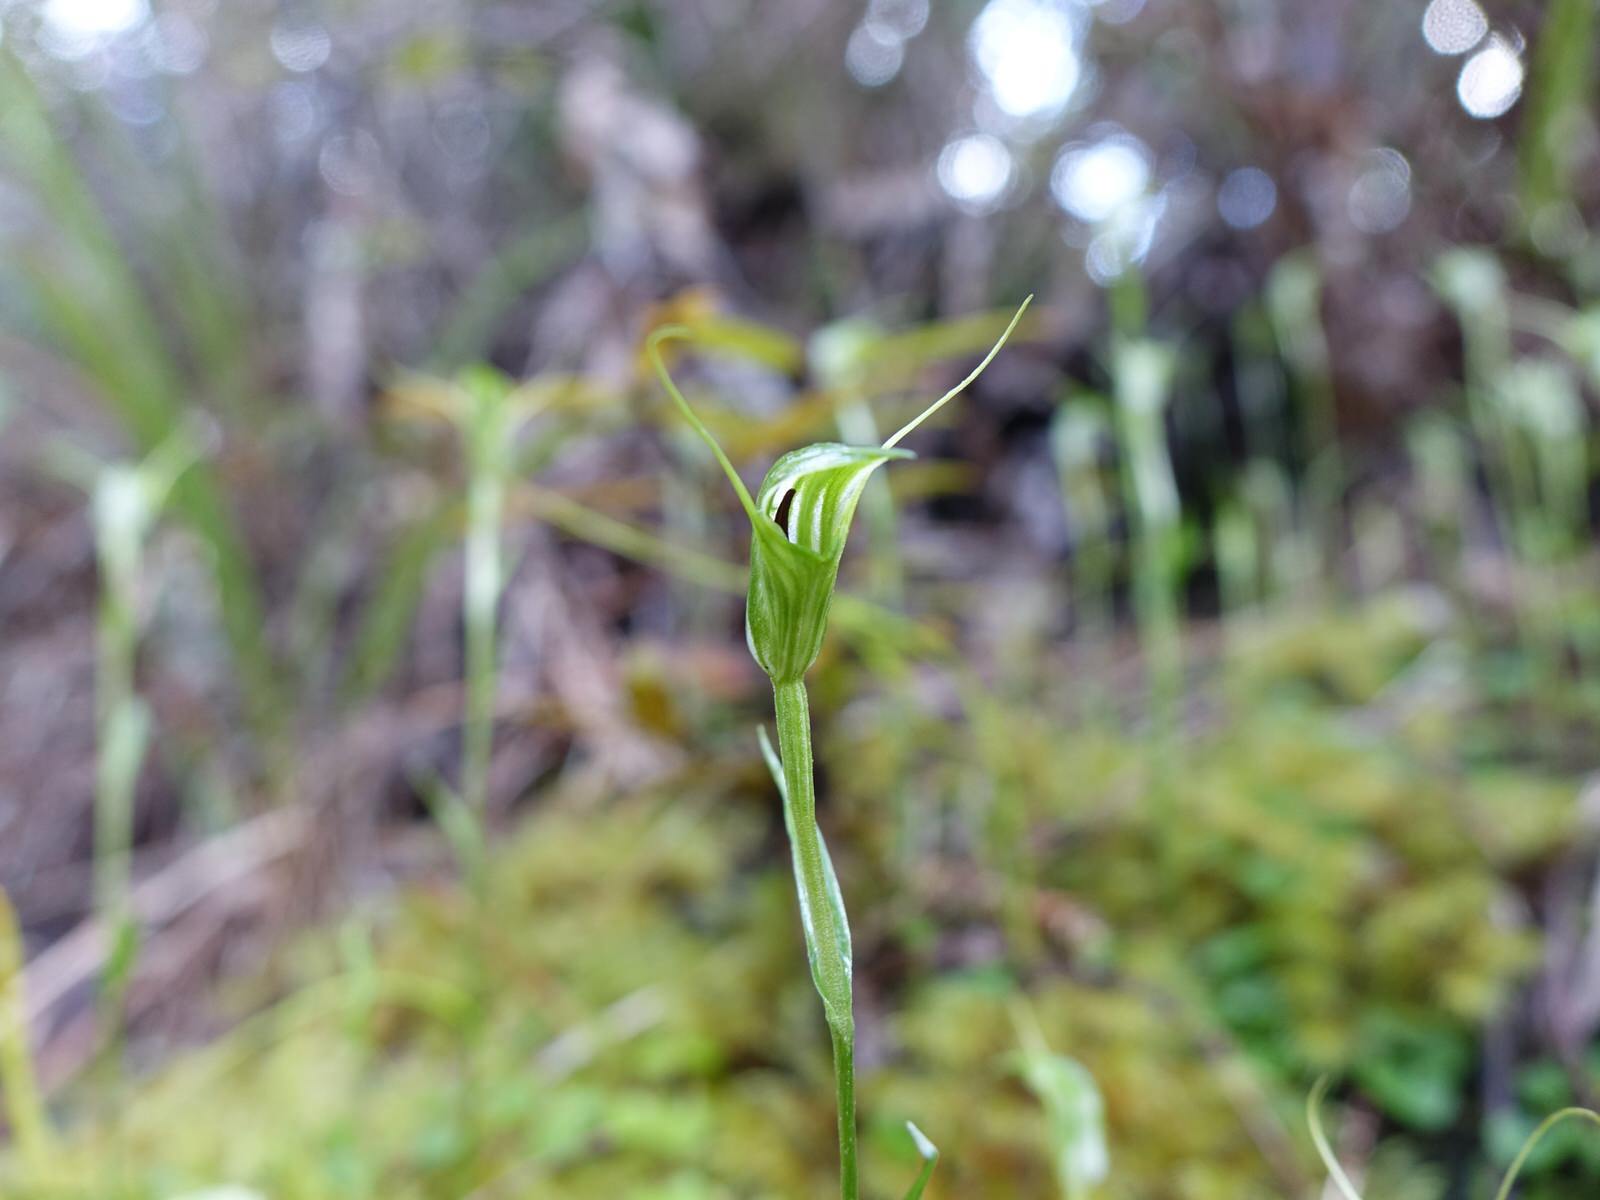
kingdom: Plantae
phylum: Tracheophyta
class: Liliopsida
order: Asparagales
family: Orchidaceae
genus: Pterostylis
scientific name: Pterostylis trullifolia
